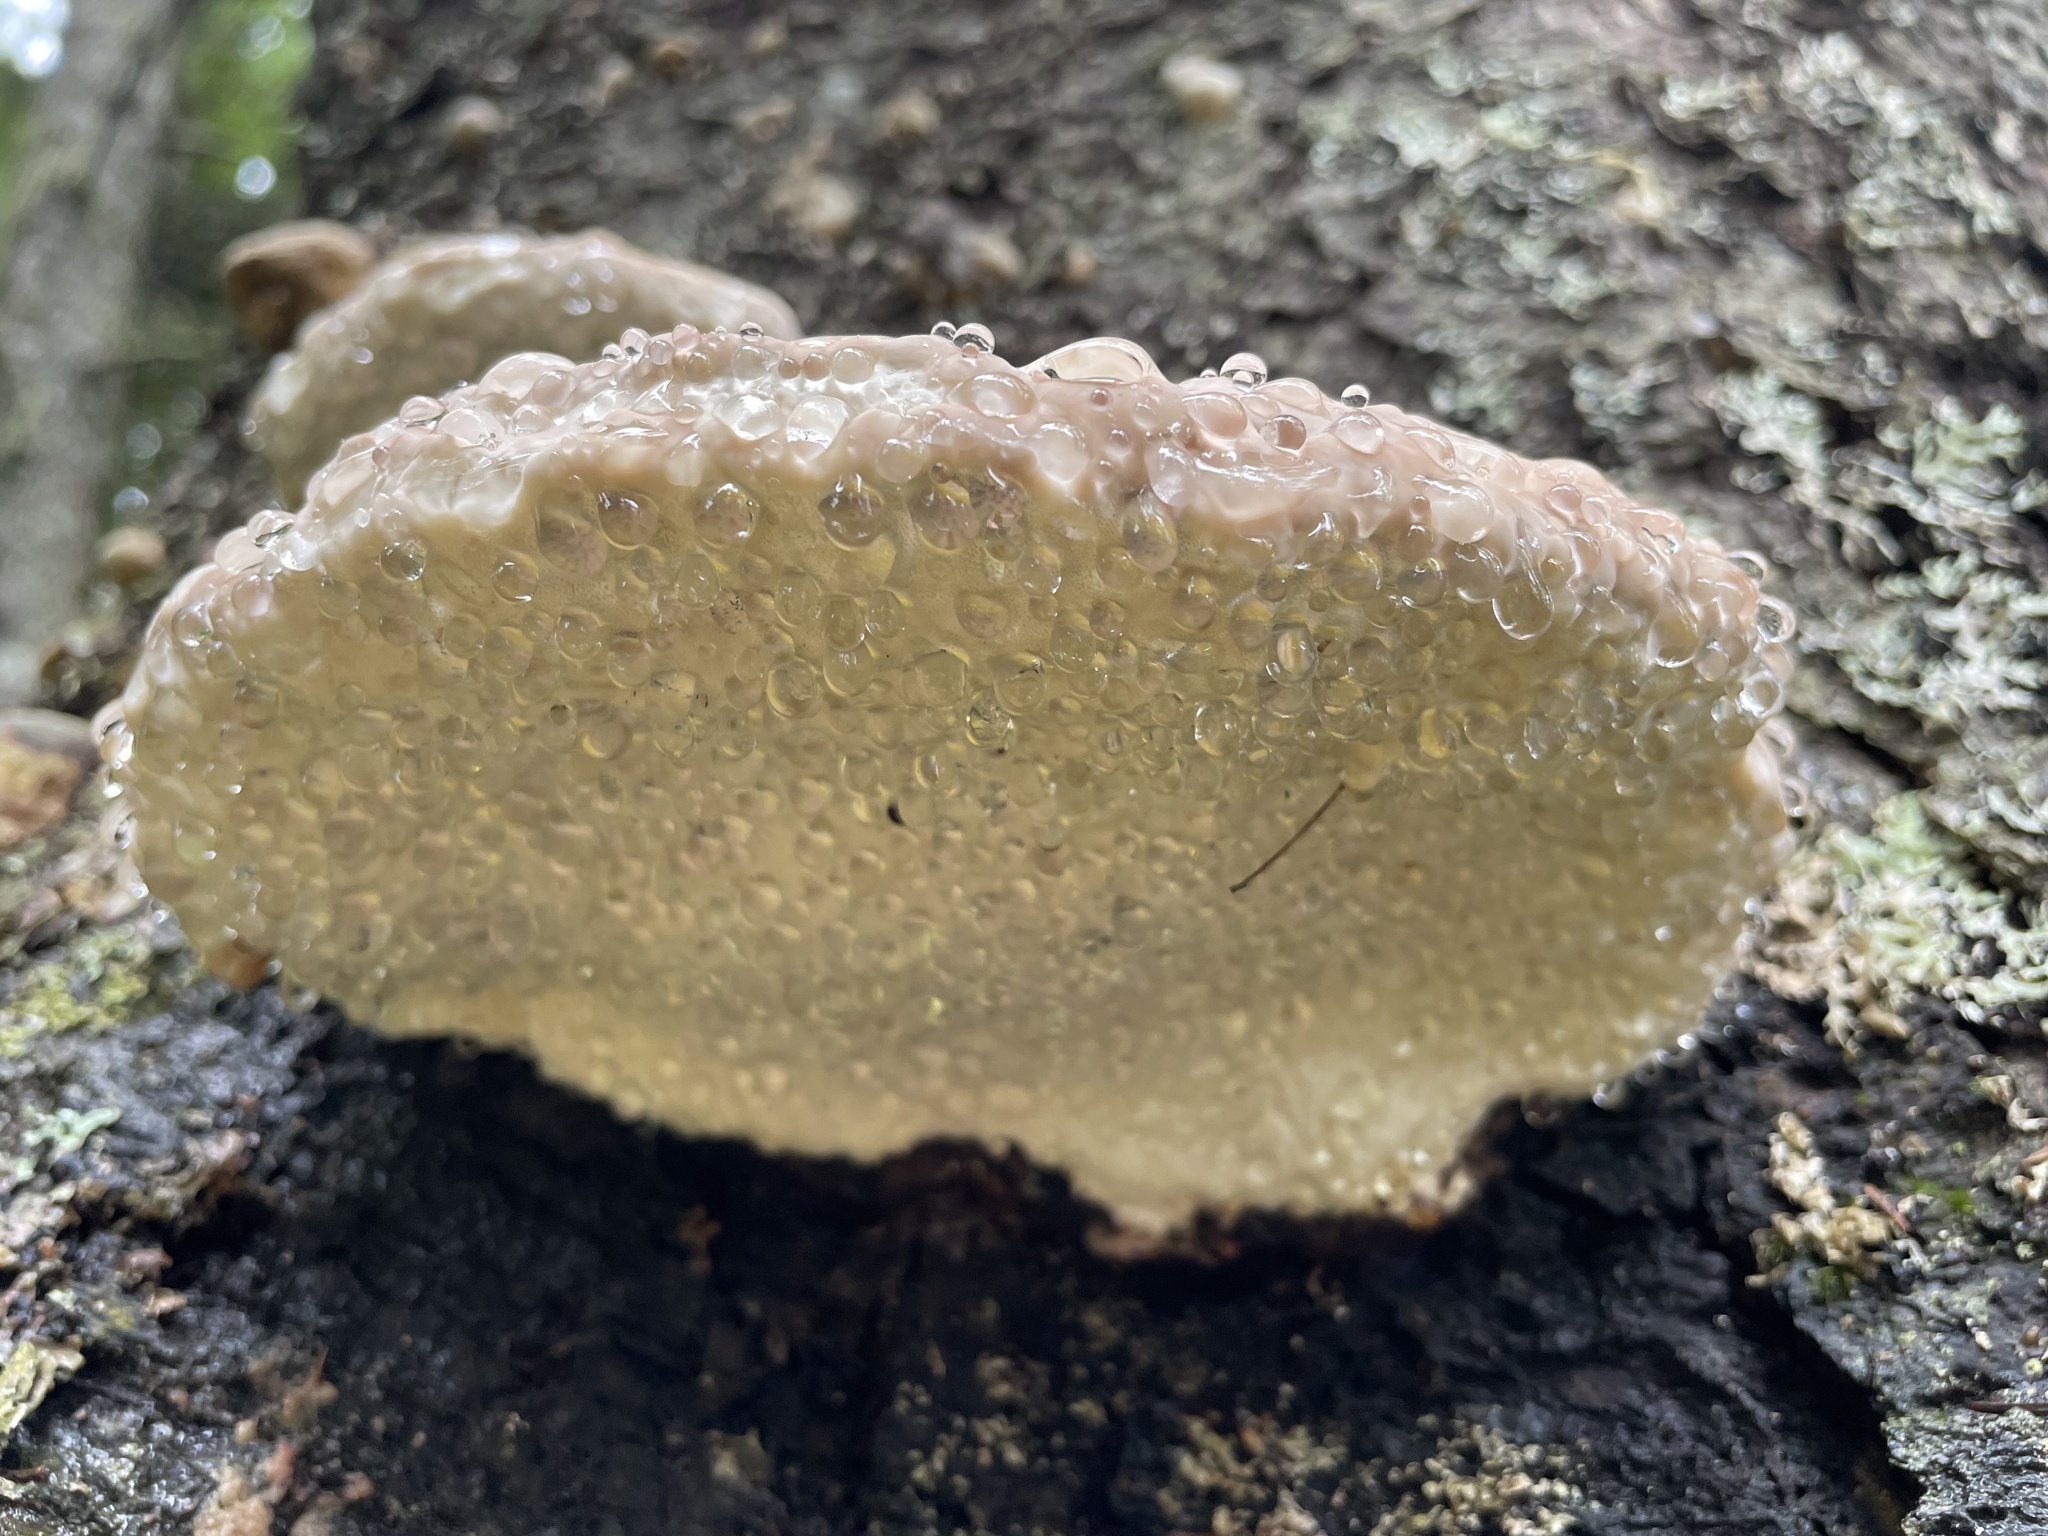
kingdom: Fungi
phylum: Basidiomycota
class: Agaricomycetes
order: Polyporales
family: Fomitopsidaceae
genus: Fomitopsis
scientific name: Fomitopsis mounceae
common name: Northern red belt
